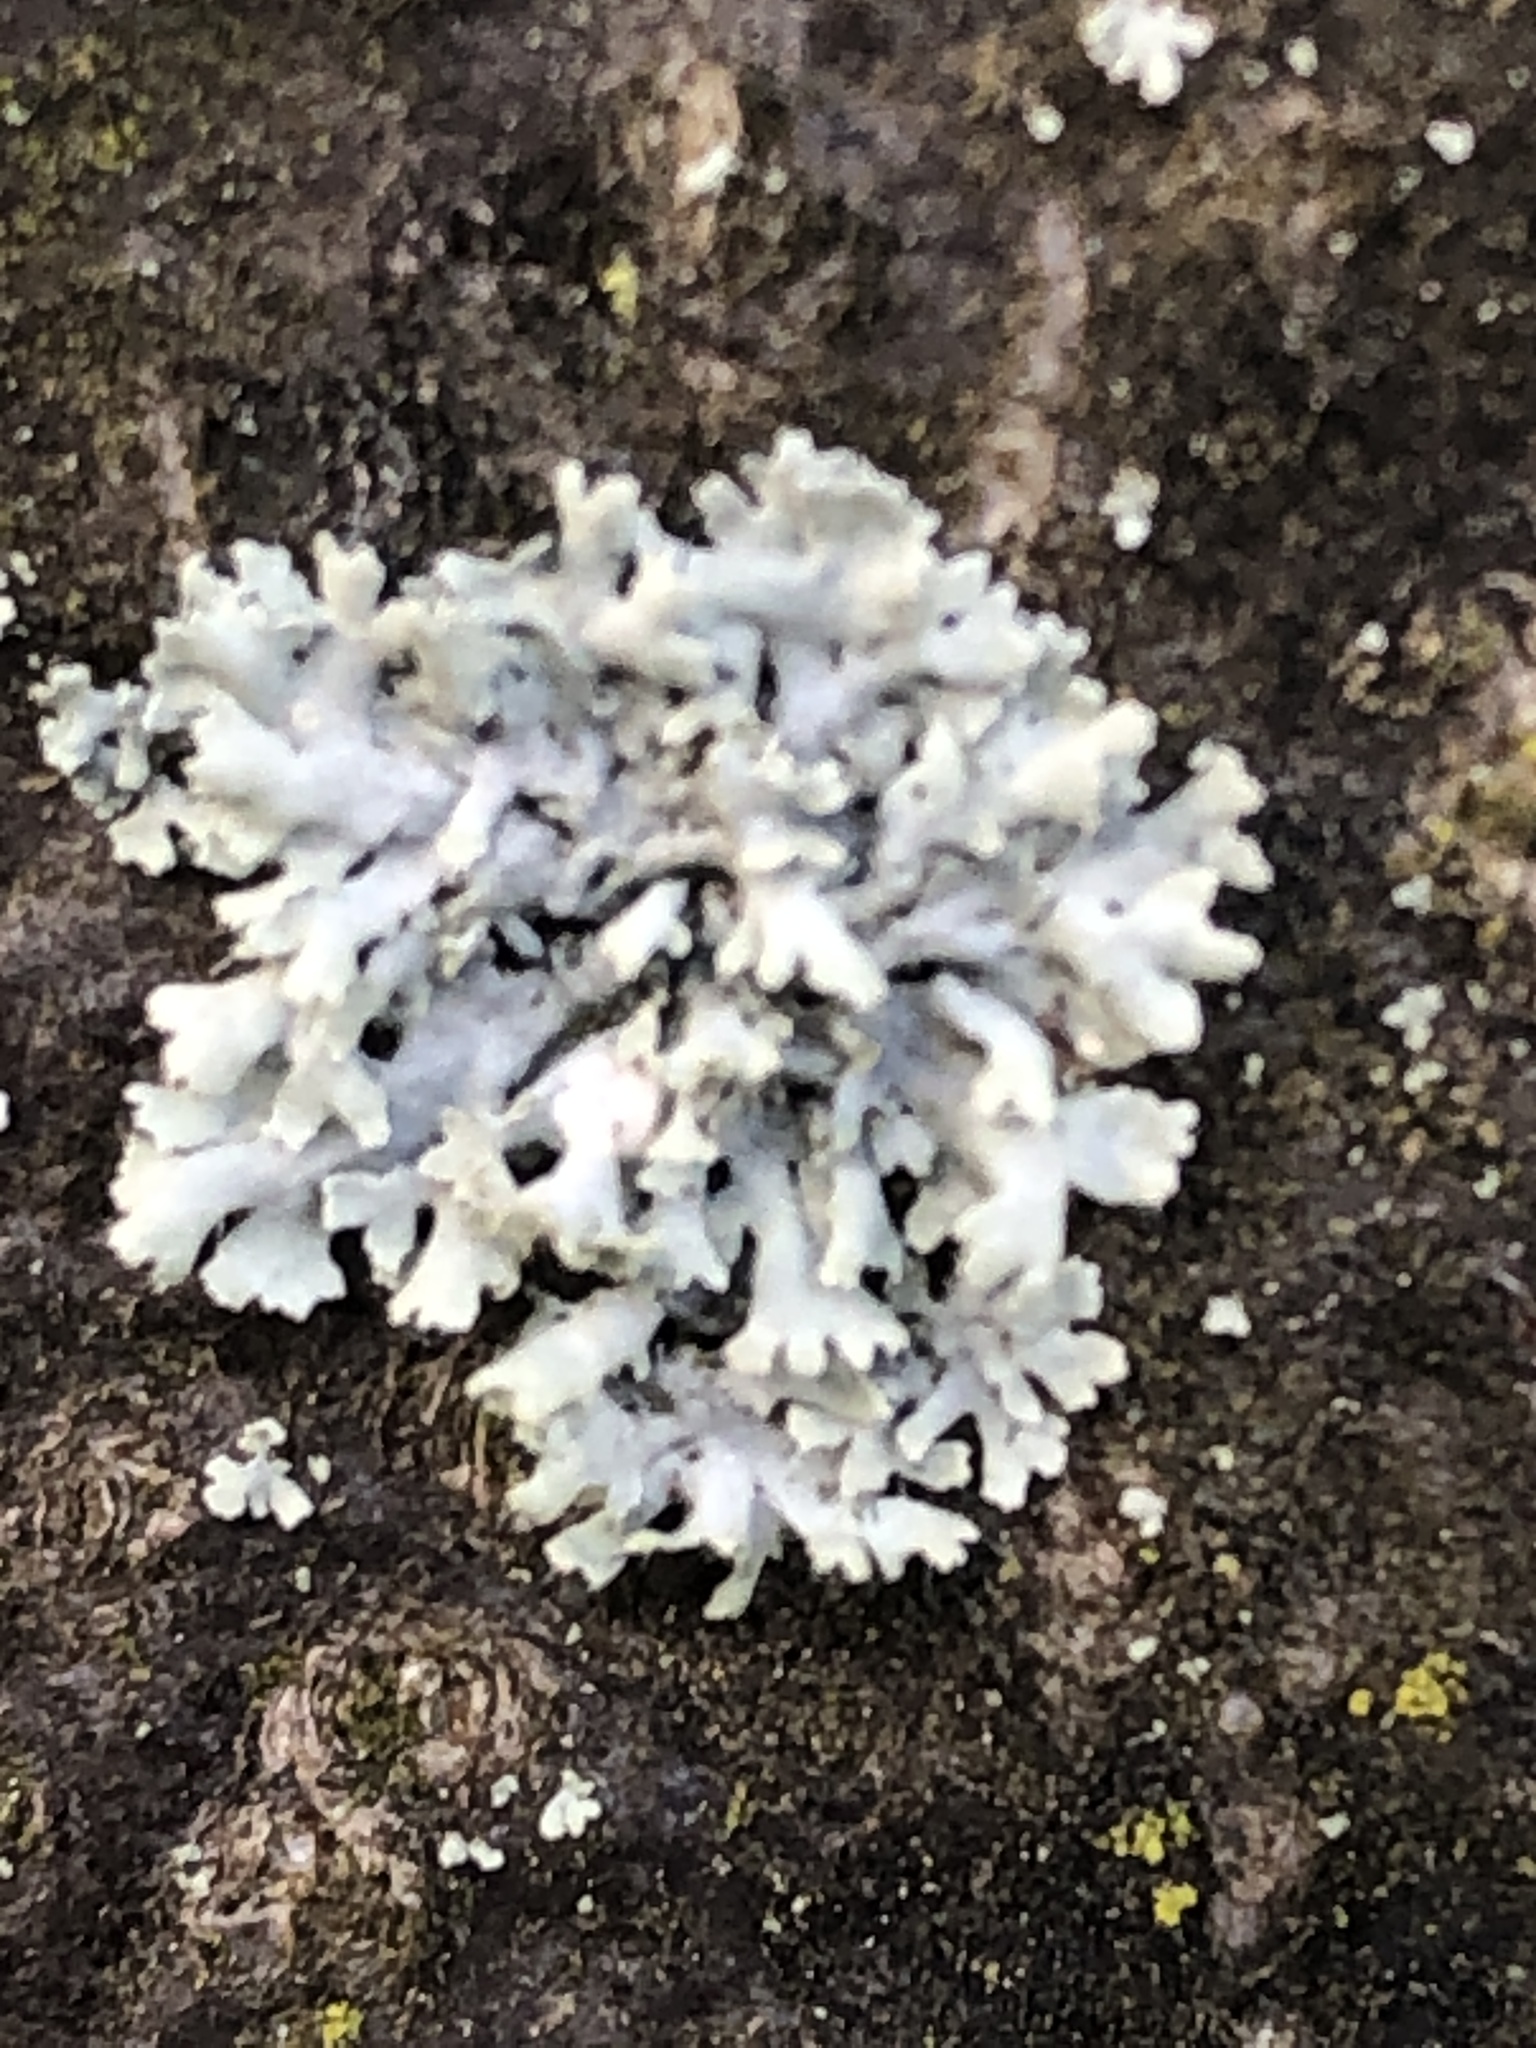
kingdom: Fungi
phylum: Ascomycota
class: Lecanoromycetes
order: Caliciales
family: Physciaceae
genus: Physcia
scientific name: Physcia adscendens
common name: Hooded rosette lichen
